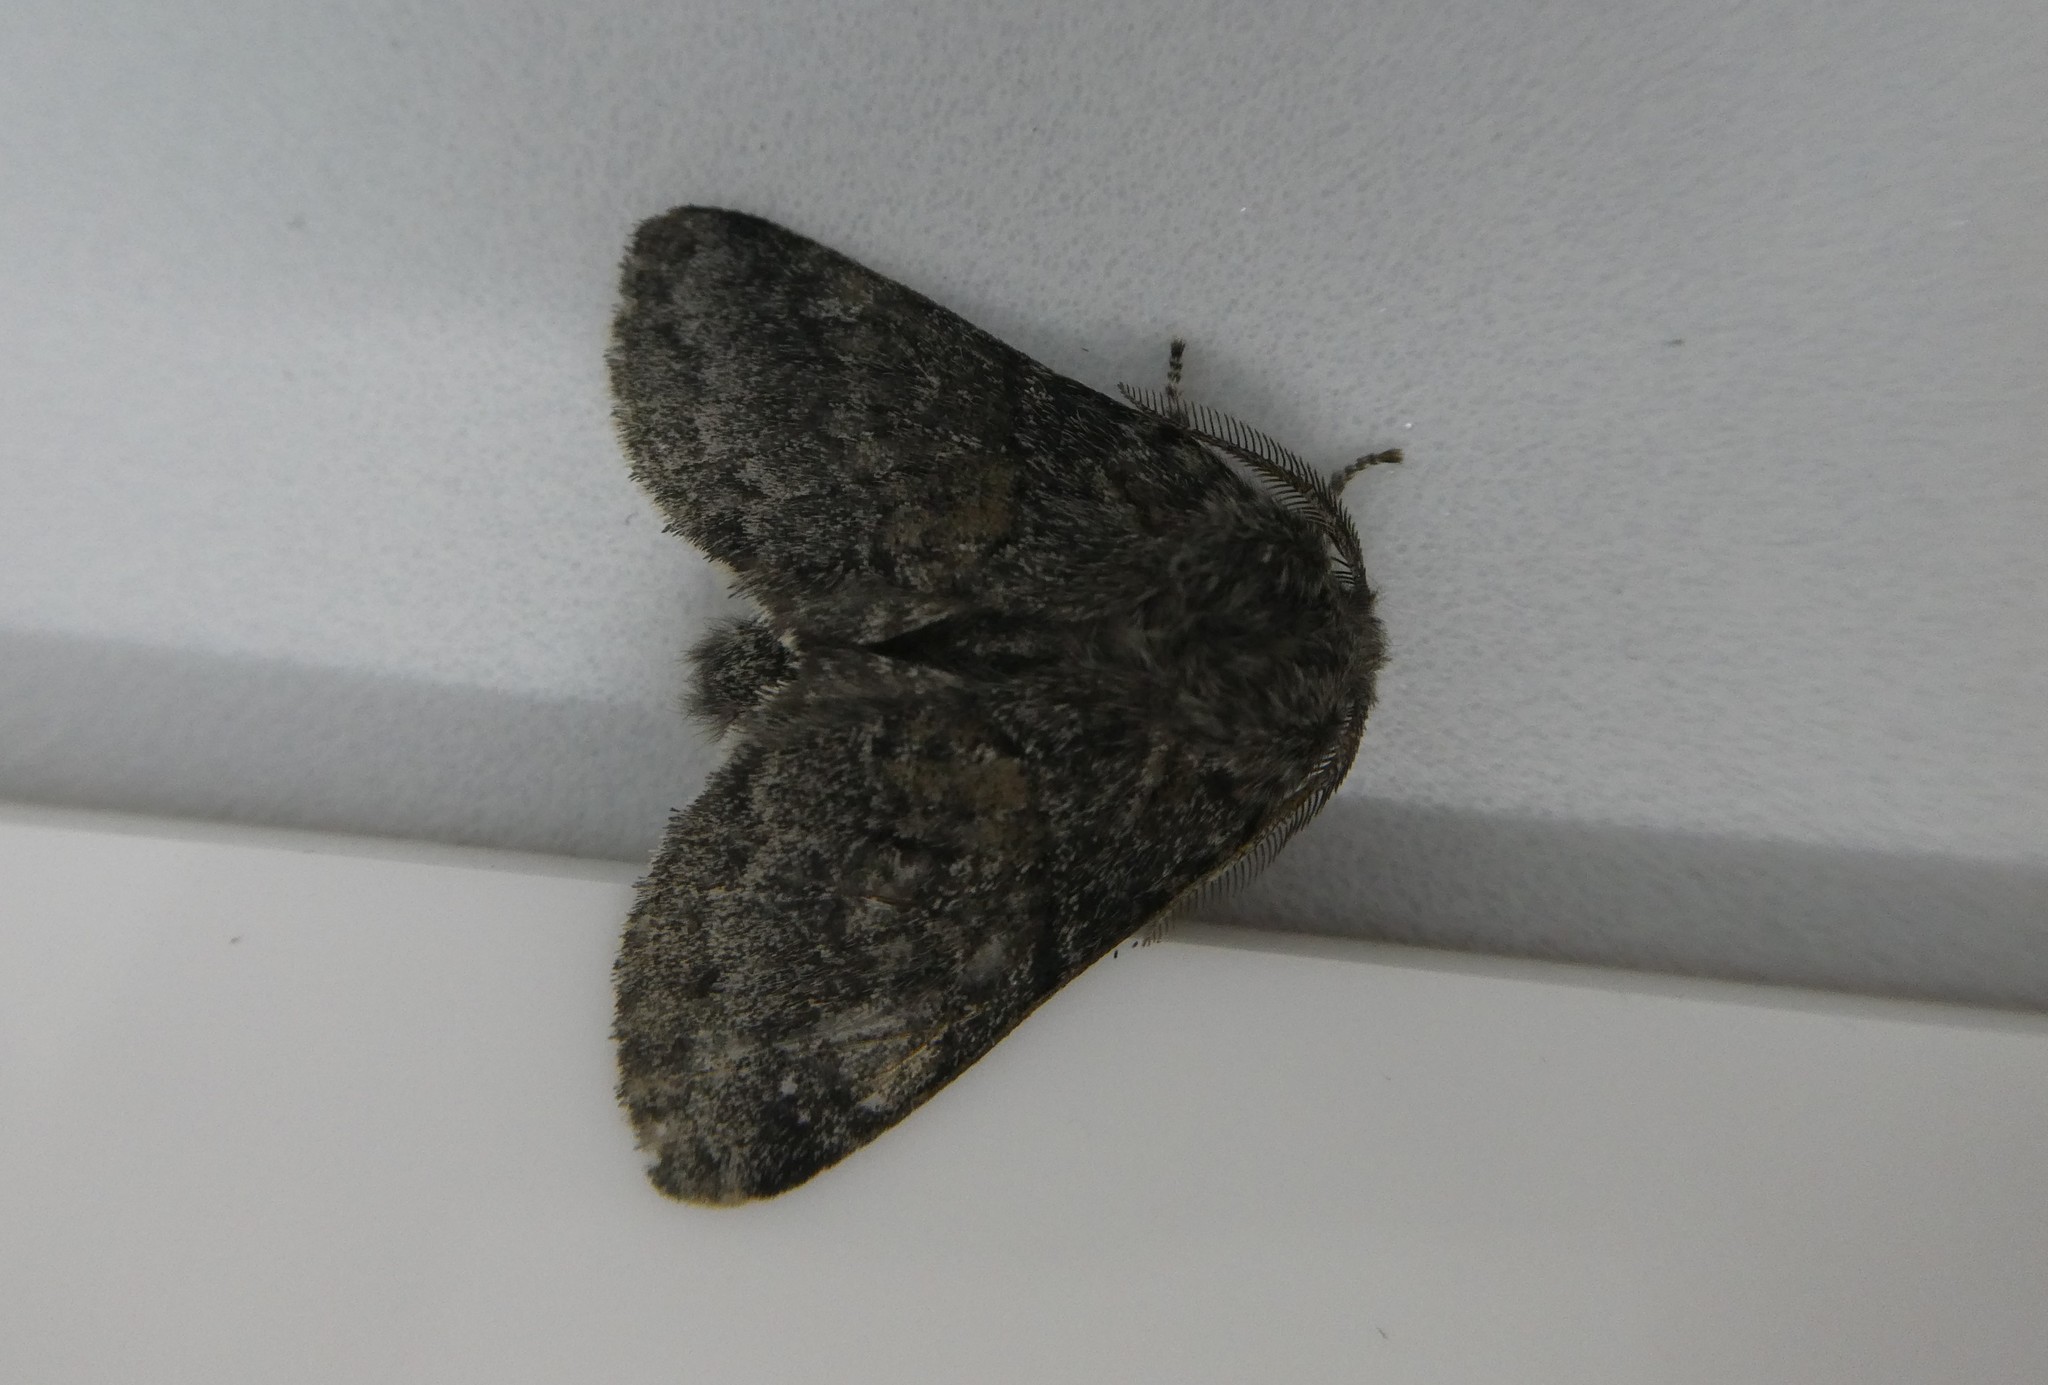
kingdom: Animalia
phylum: Arthropoda
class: Insecta
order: Lepidoptera
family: Notodontidae
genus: Gluphisia
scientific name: Gluphisia septentrionis
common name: Common gluphisia
